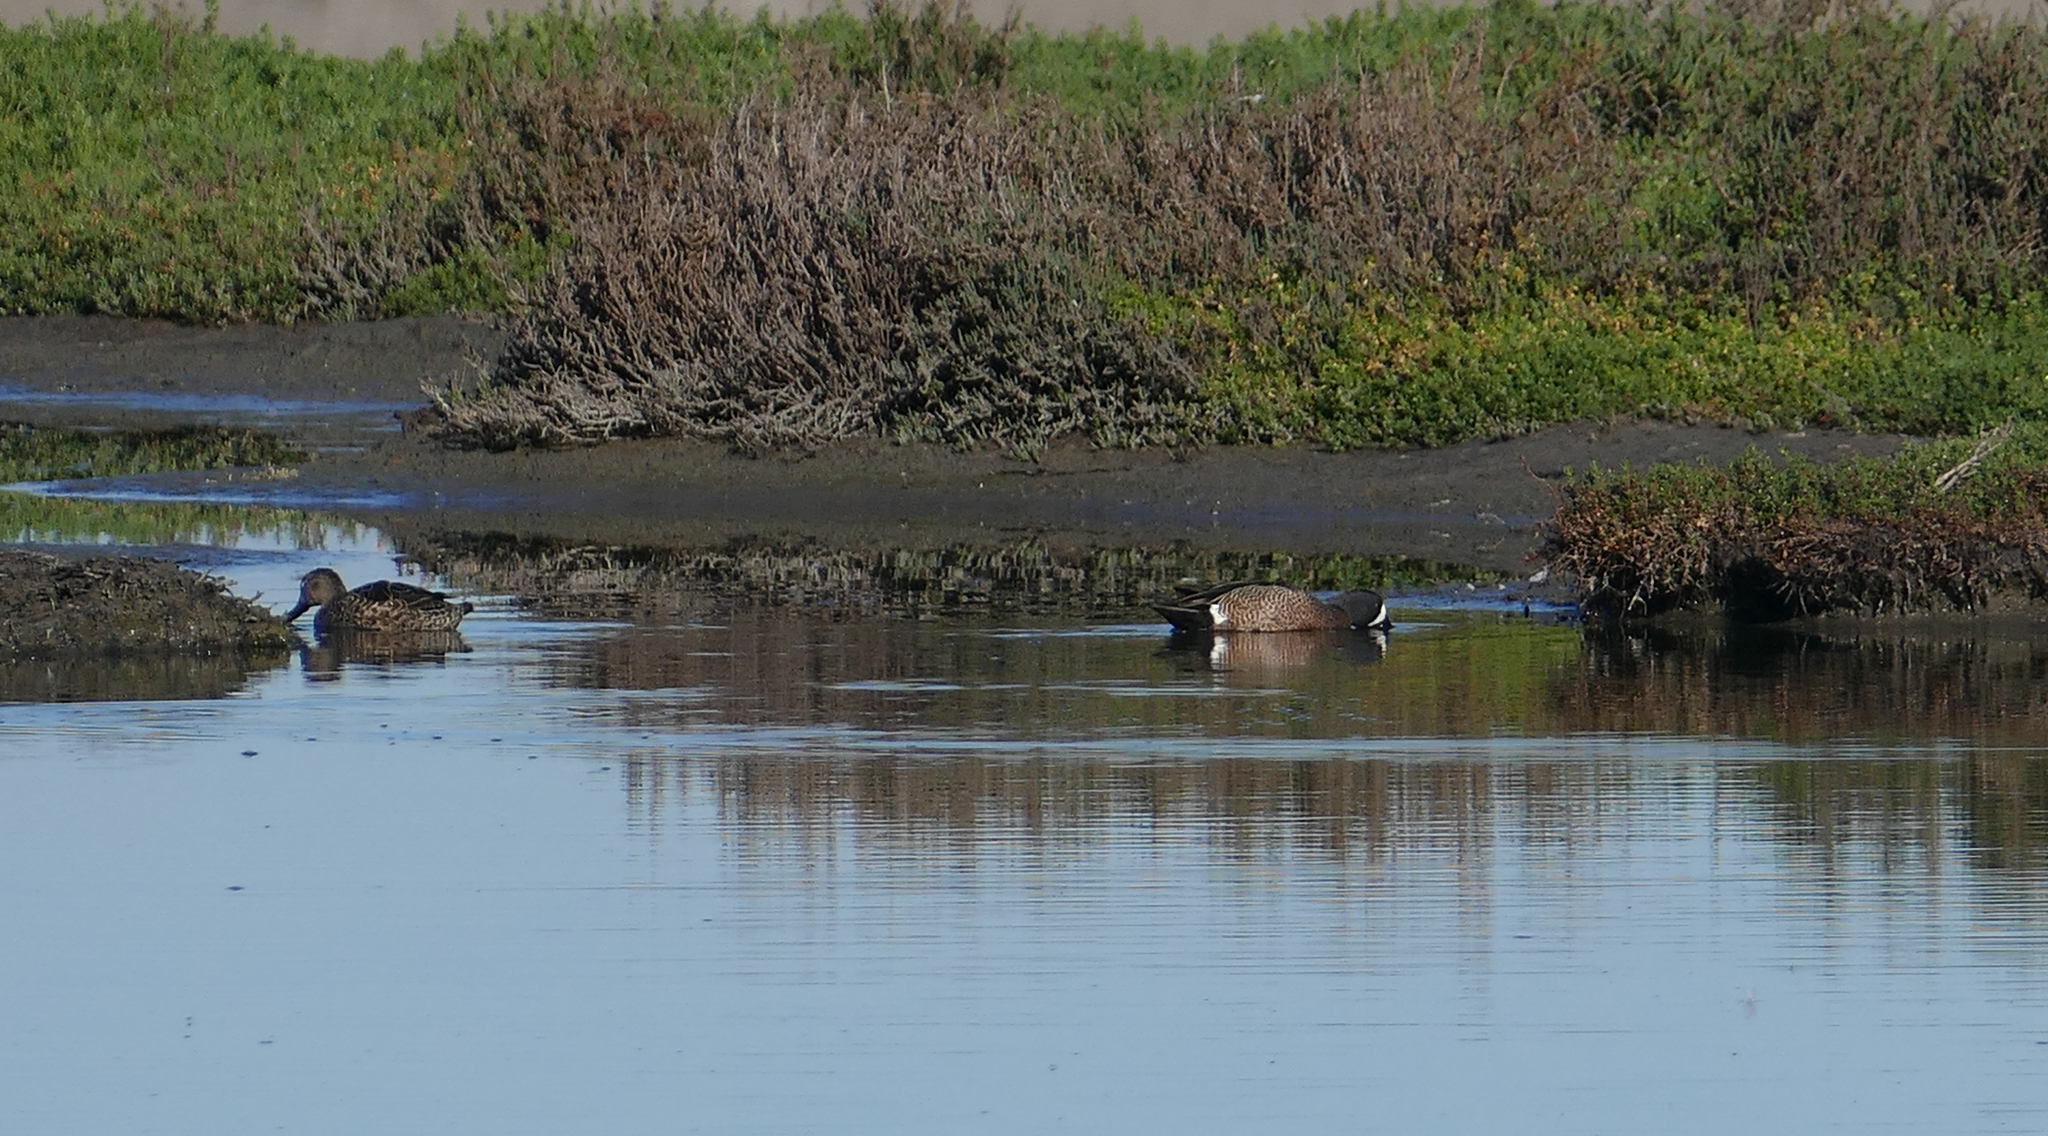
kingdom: Animalia
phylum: Chordata
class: Aves
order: Anseriformes
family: Anatidae
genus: Spatula
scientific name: Spatula discors
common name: Blue-winged teal
